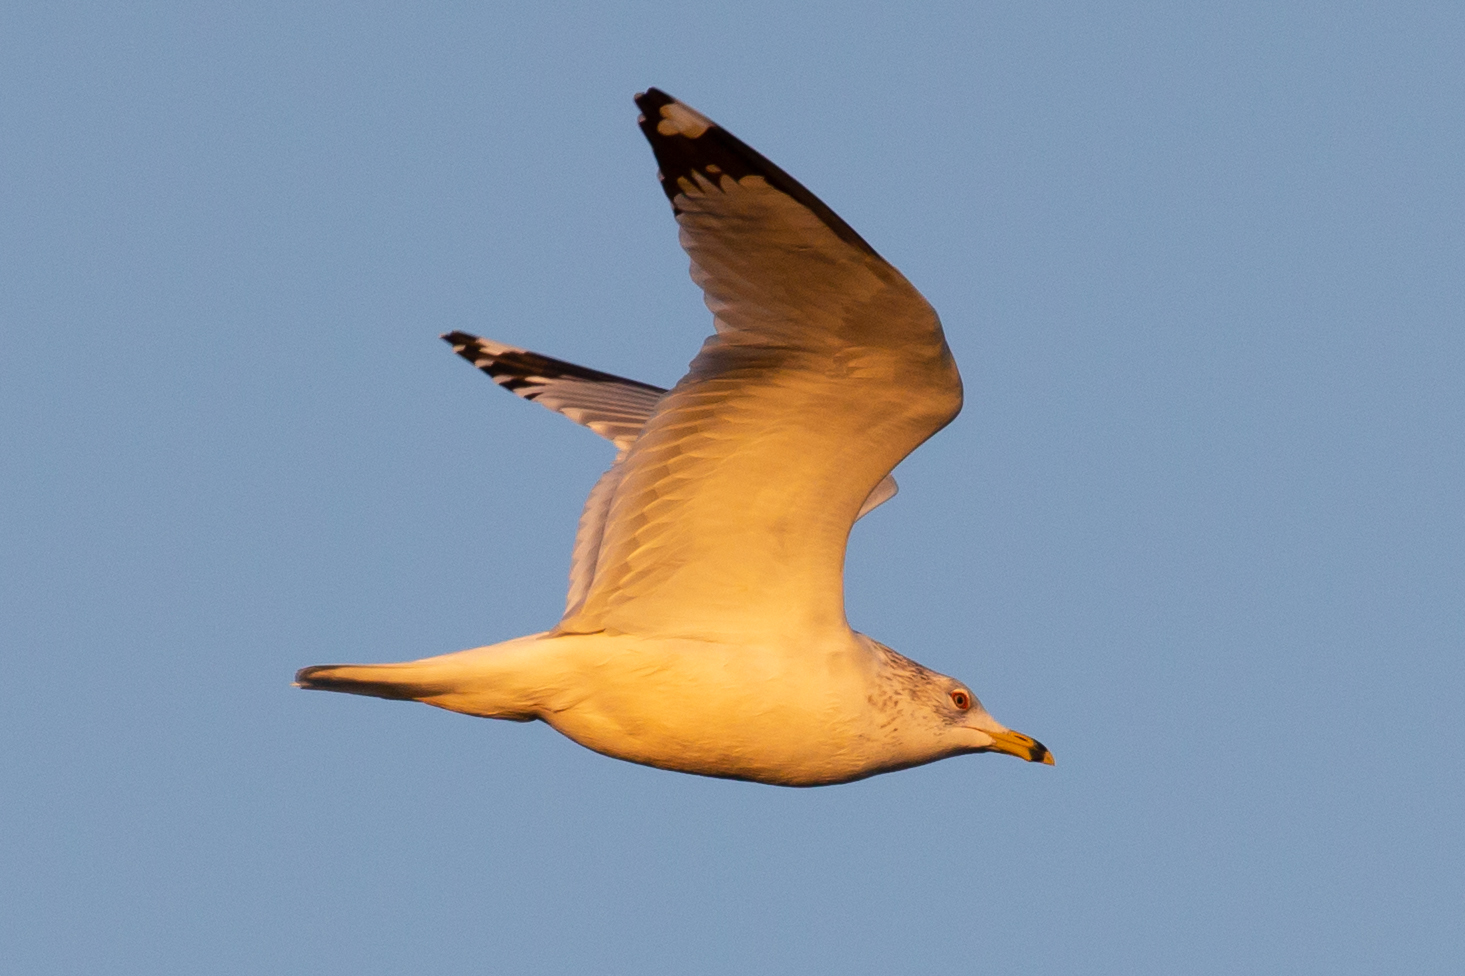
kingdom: Animalia
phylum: Chordata
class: Aves
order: Charadriiformes
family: Laridae
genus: Larus
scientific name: Larus delawarensis
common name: Ring-billed gull
